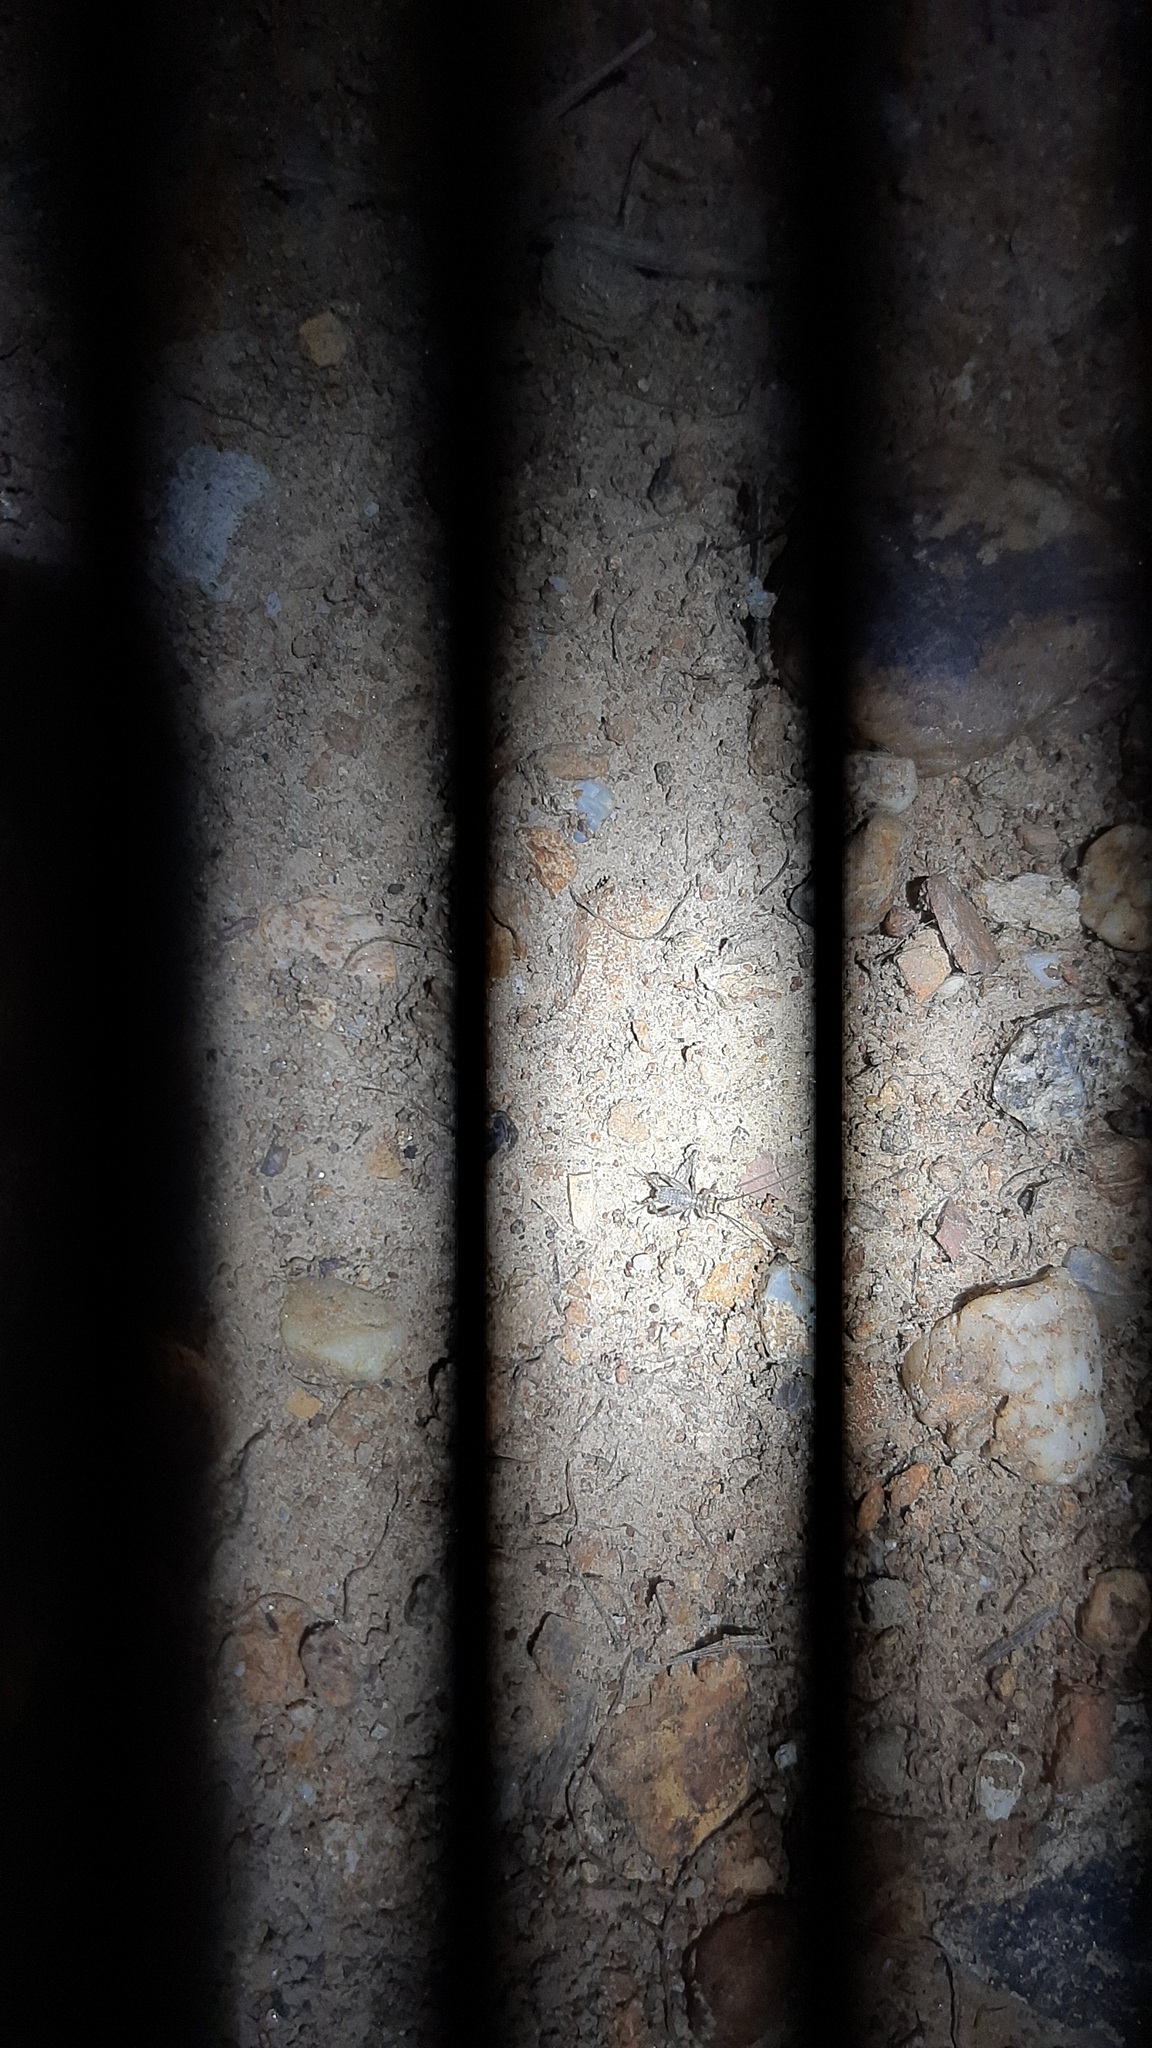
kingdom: Animalia
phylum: Arthropoda
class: Insecta
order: Orthoptera
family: Gryllidae
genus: Eumodicogryllus
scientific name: Eumodicogryllus bordigalensis
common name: Bordeaux cricket
